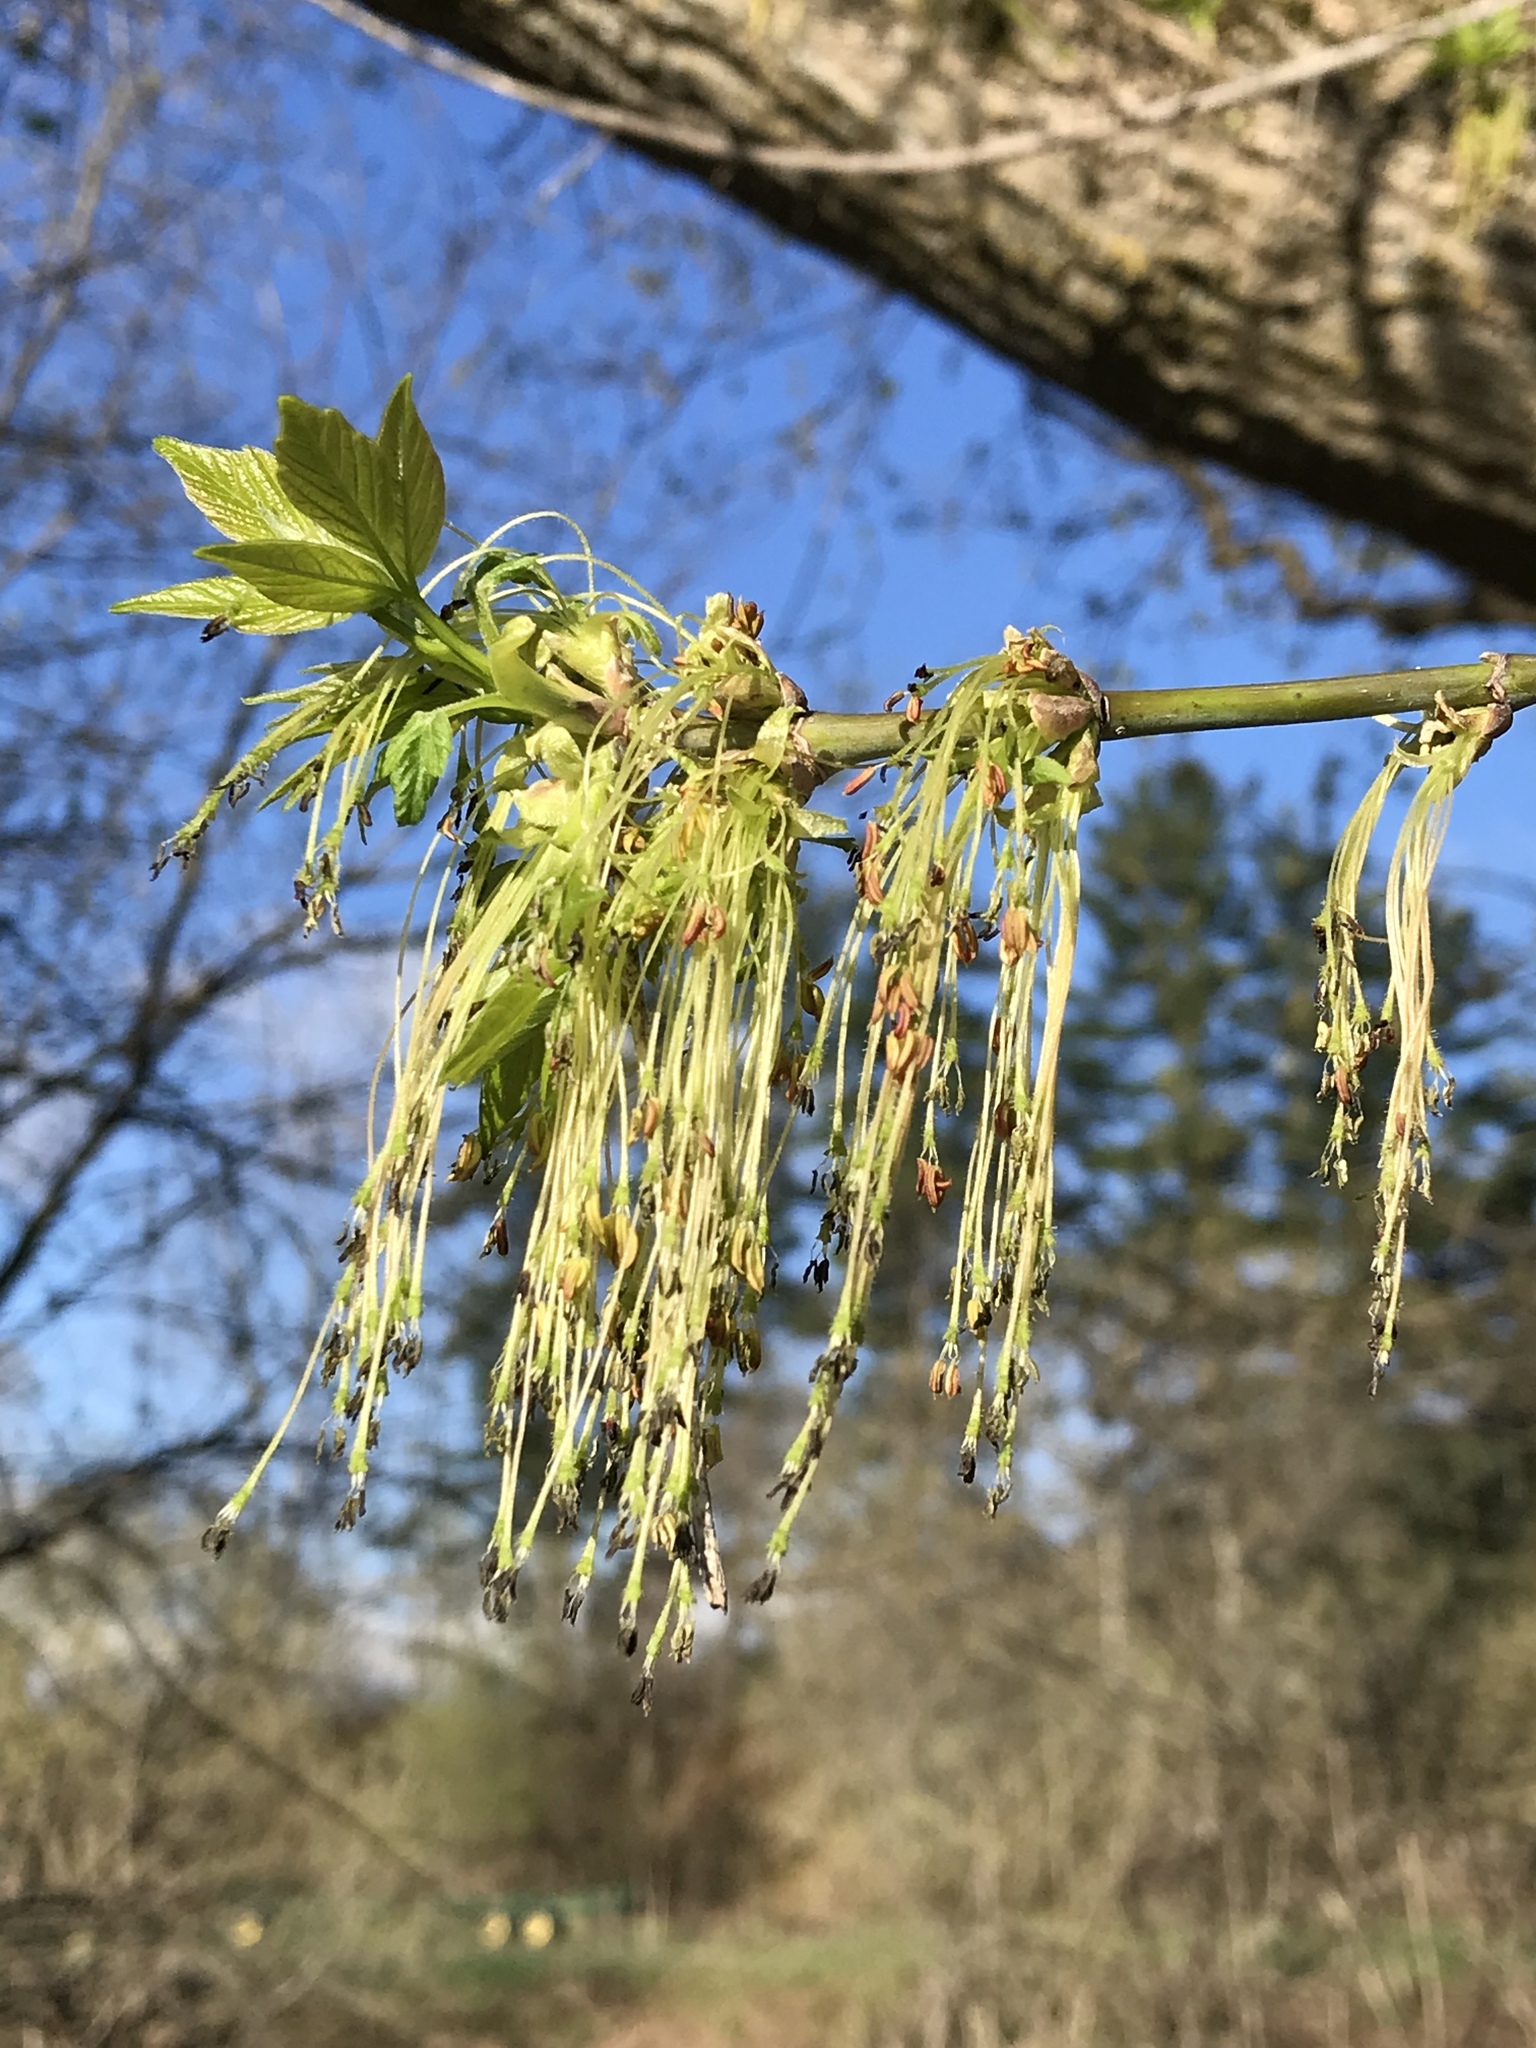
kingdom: Plantae
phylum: Tracheophyta
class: Magnoliopsida
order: Sapindales
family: Sapindaceae
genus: Acer
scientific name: Acer negundo
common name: Ashleaf maple
